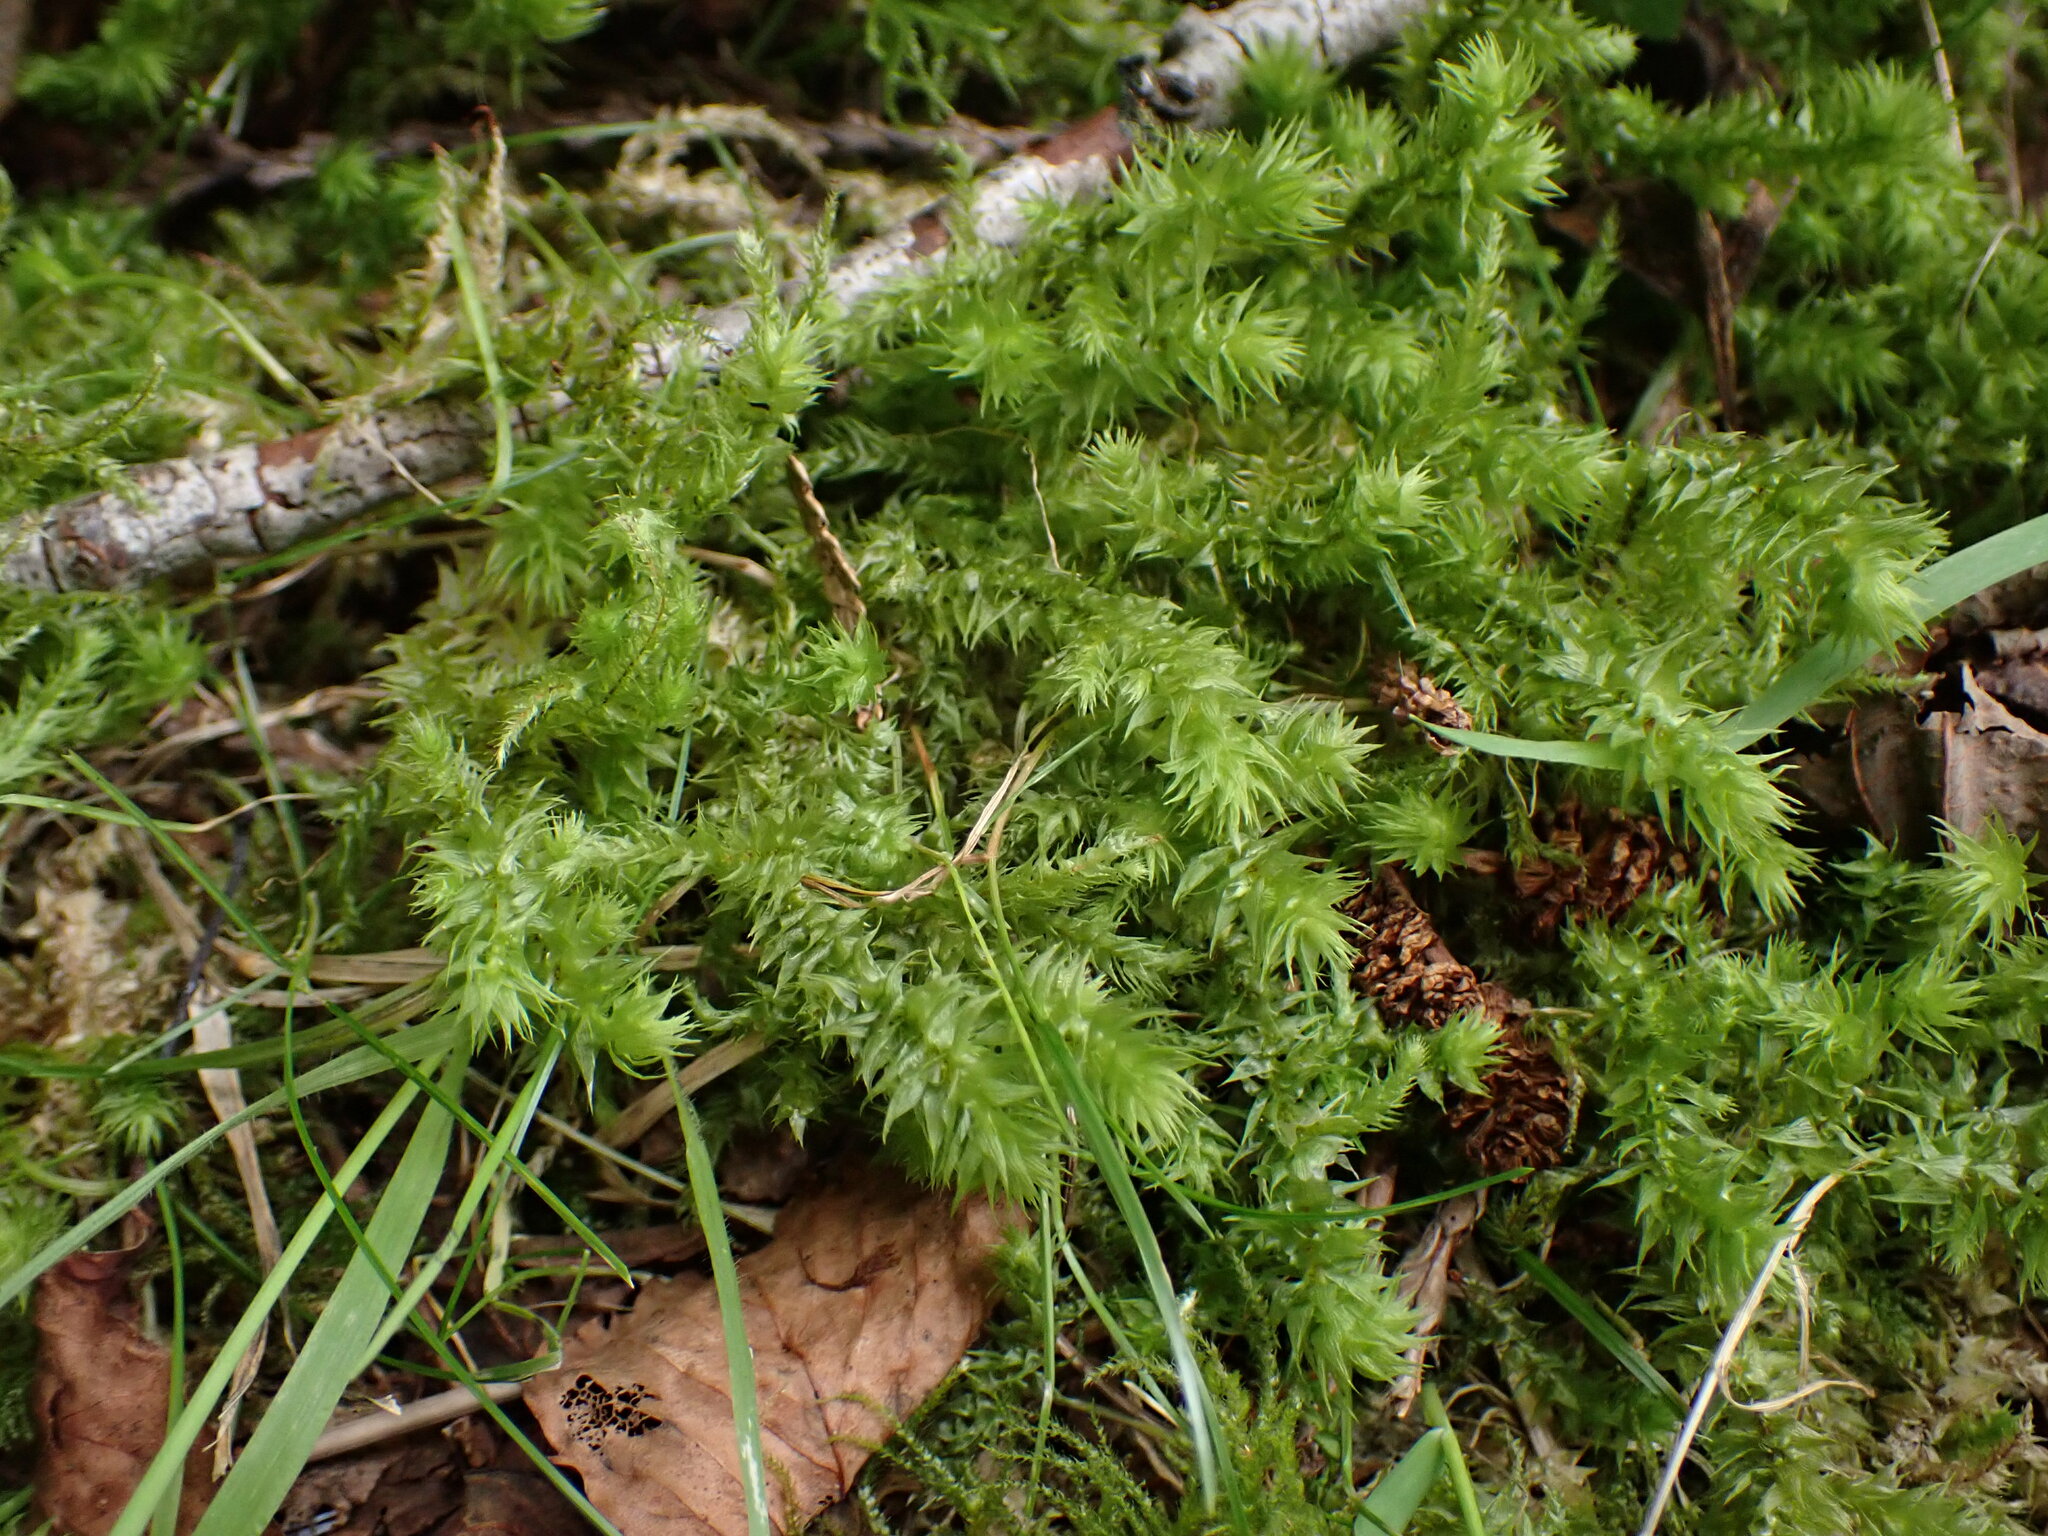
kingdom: Plantae
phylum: Bryophyta
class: Bryopsida
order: Hypnales
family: Hylocomiaceae
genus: Hylocomiadelphus
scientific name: Hylocomiadelphus triquetrus
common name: Rough goose neck moss
